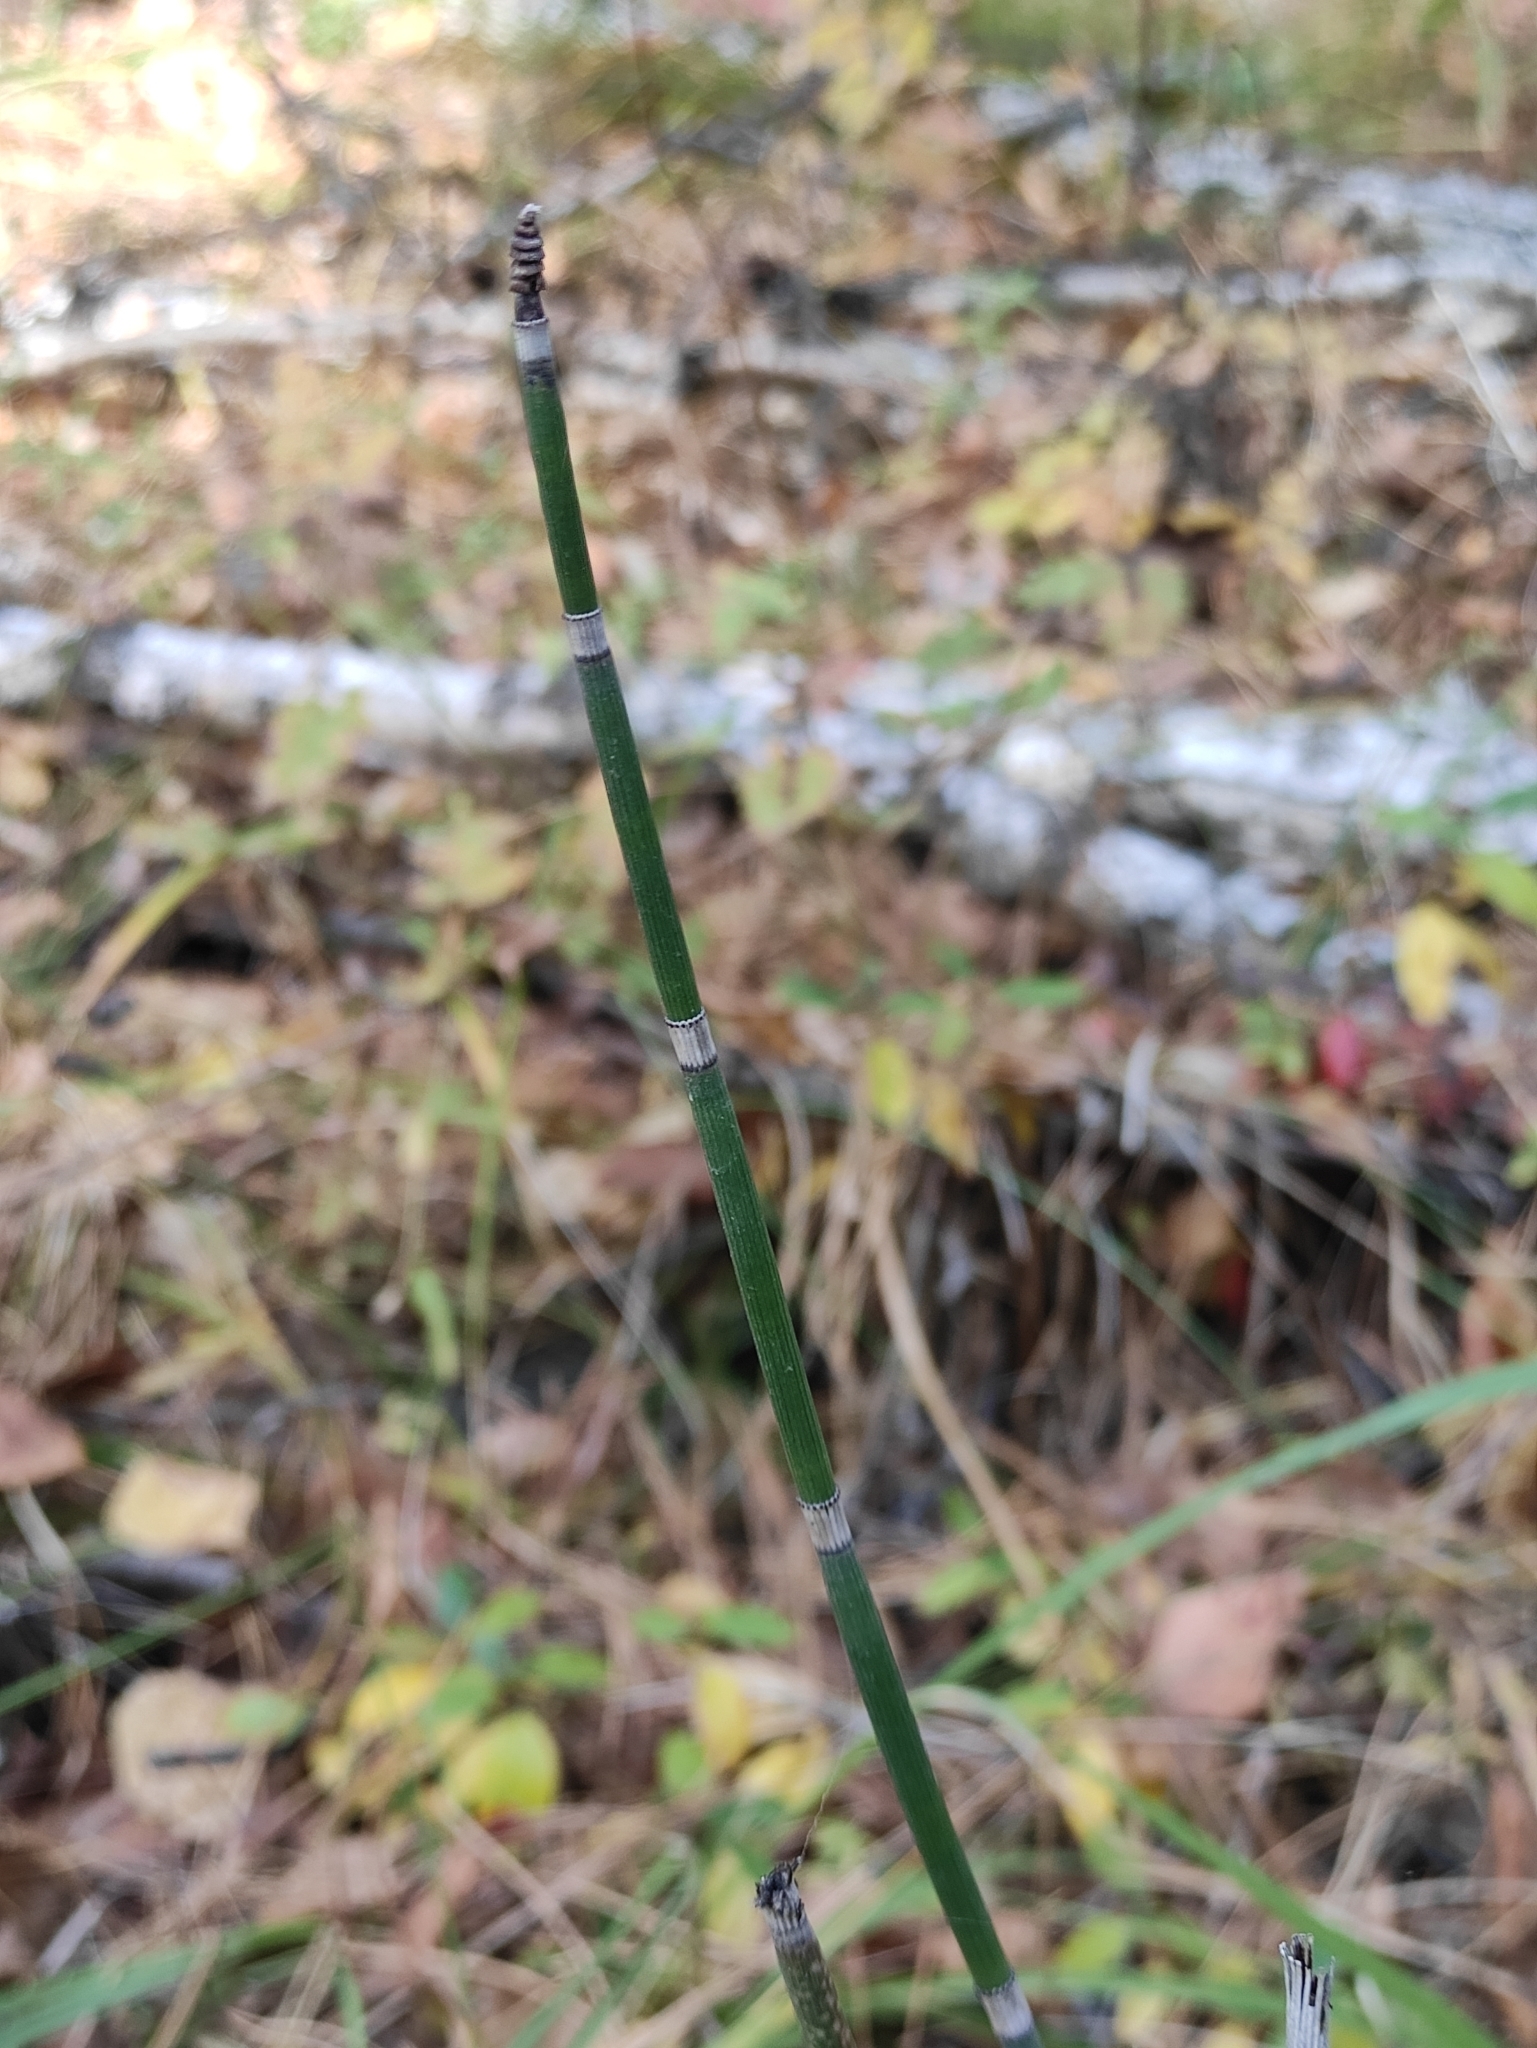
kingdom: Plantae
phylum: Tracheophyta
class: Polypodiopsida
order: Equisetales
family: Equisetaceae
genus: Equisetum
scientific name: Equisetum hyemale
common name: Rough horsetail
